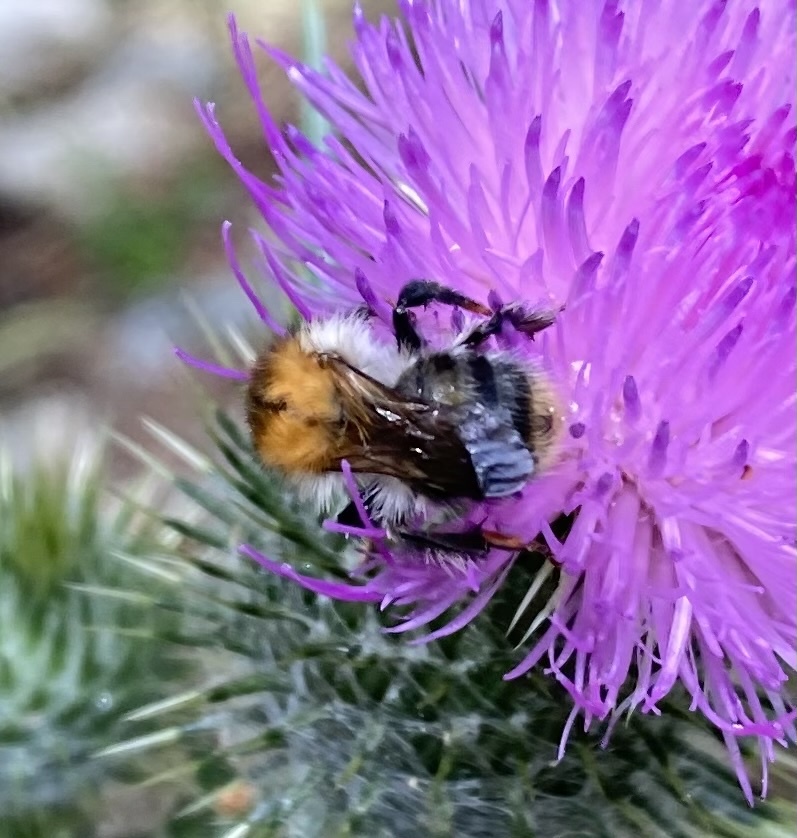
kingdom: Animalia
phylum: Arthropoda
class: Insecta
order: Hymenoptera
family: Apidae
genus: Bombus
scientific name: Bombus pascuorum
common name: Common carder bee
